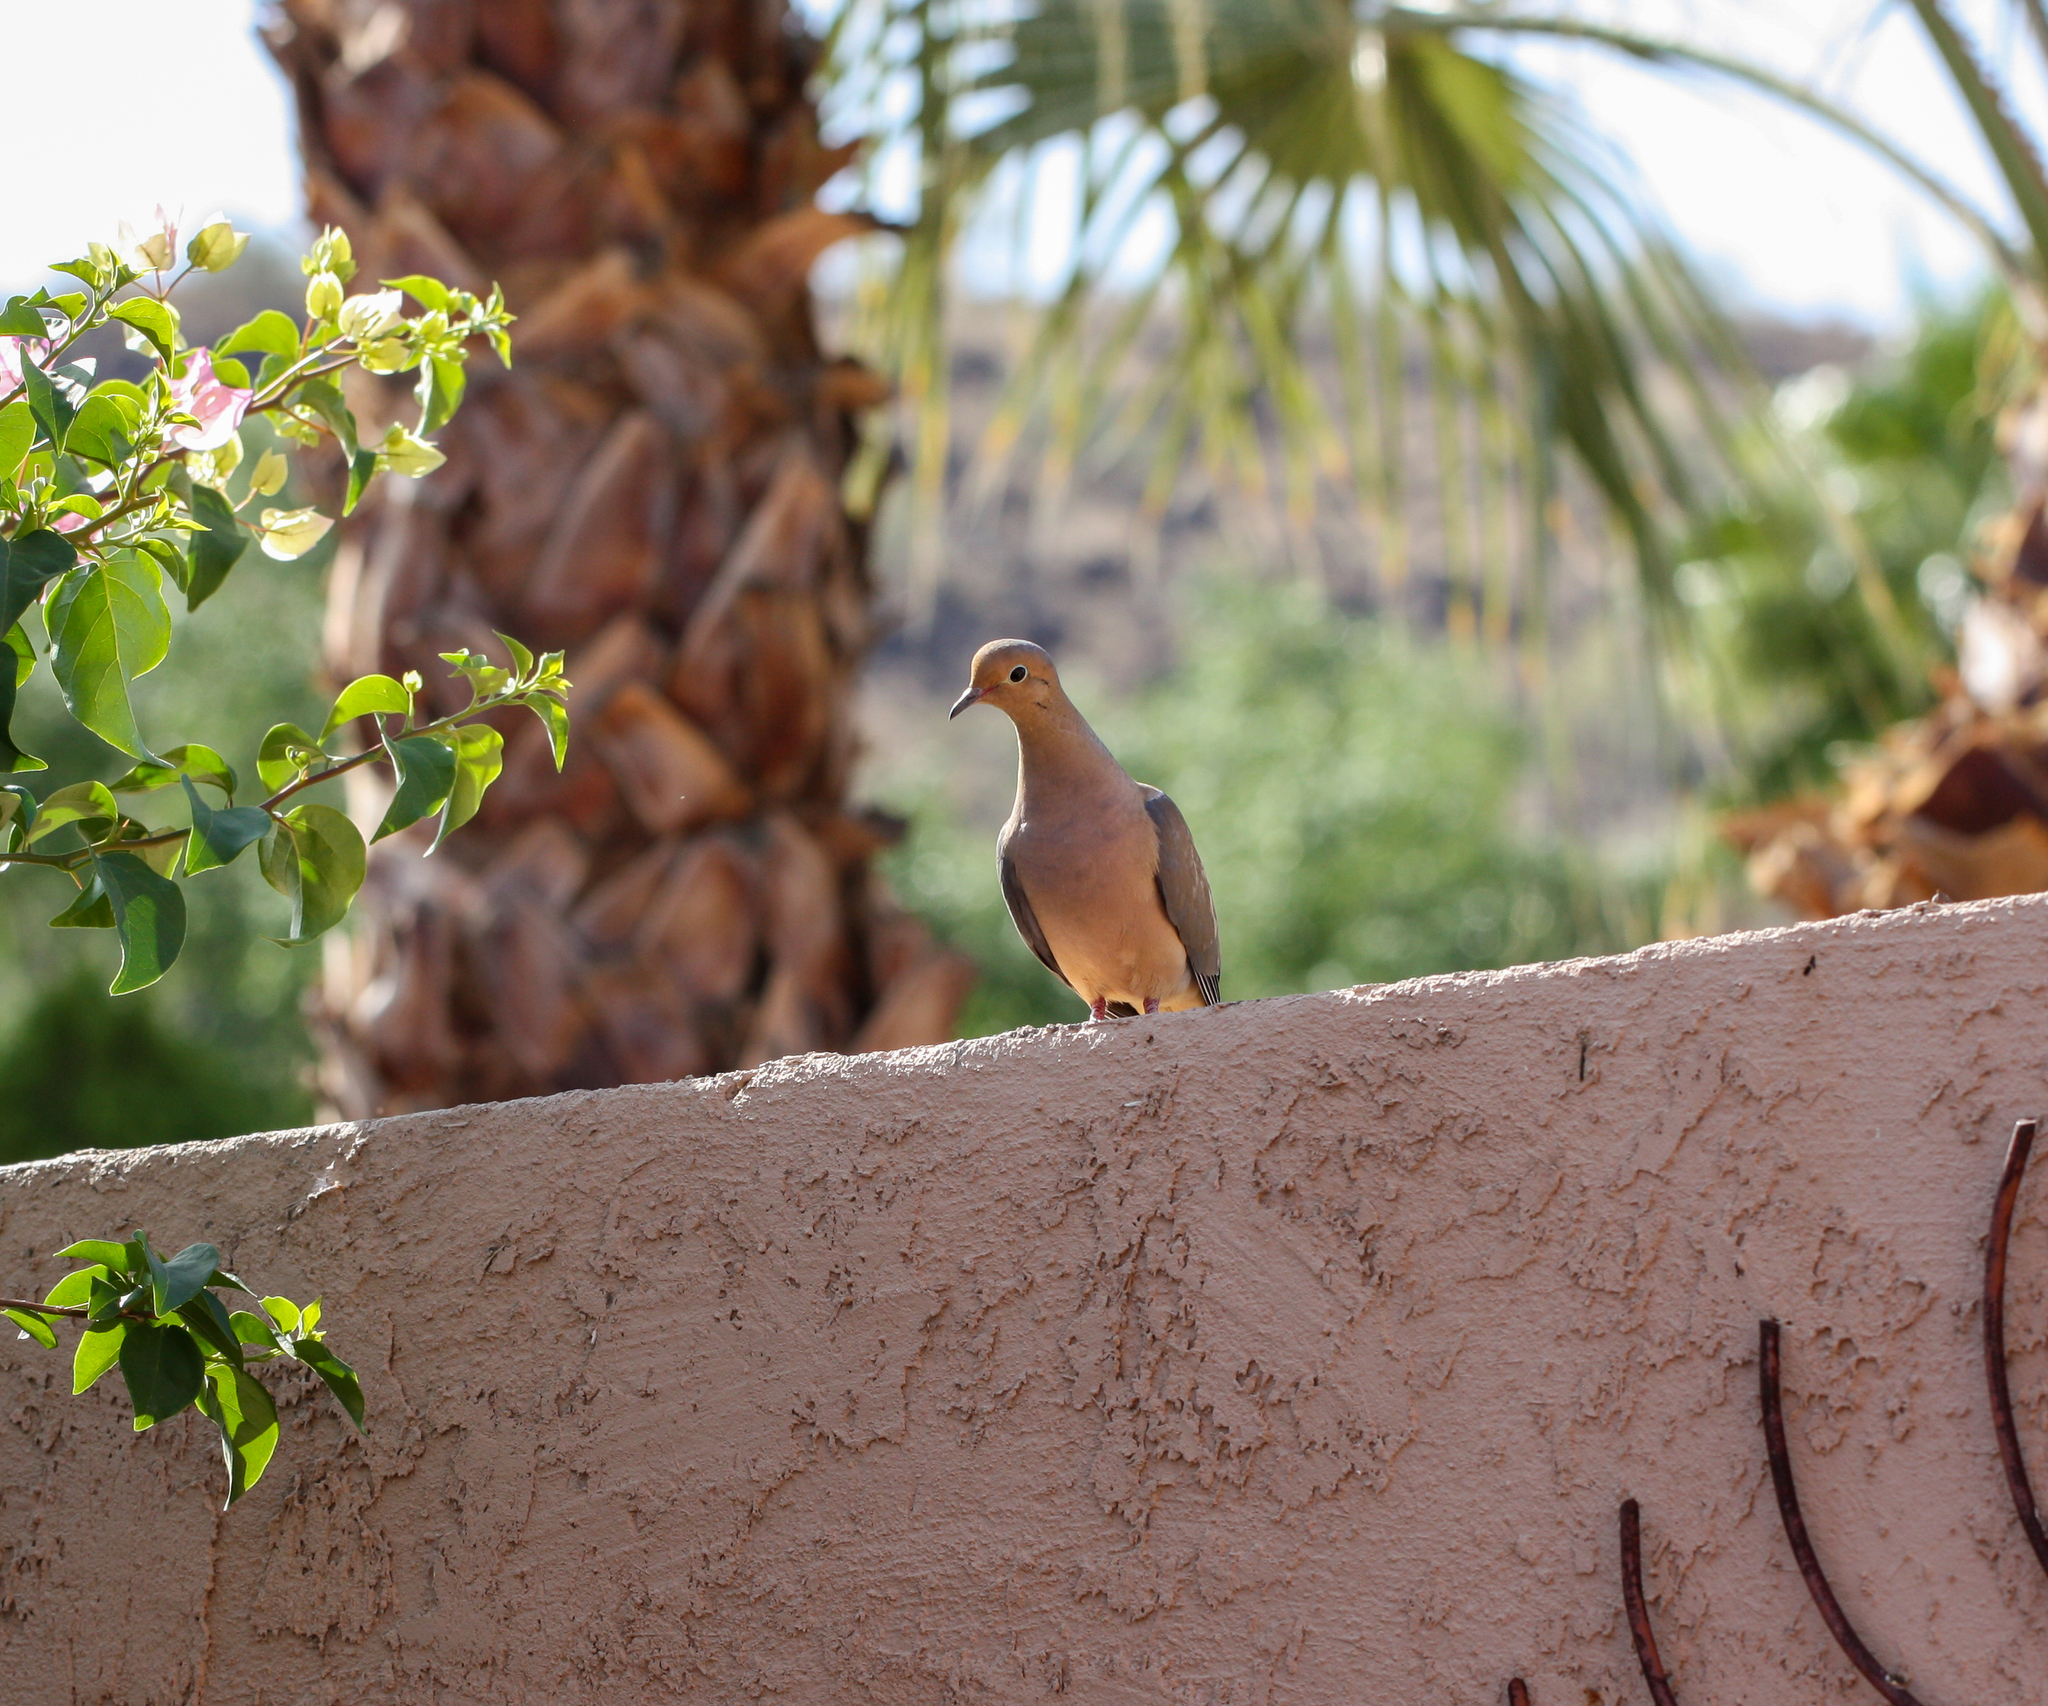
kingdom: Animalia
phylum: Chordata
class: Aves
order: Columbiformes
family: Columbidae
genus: Zenaida
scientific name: Zenaida macroura
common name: Mourning dove
